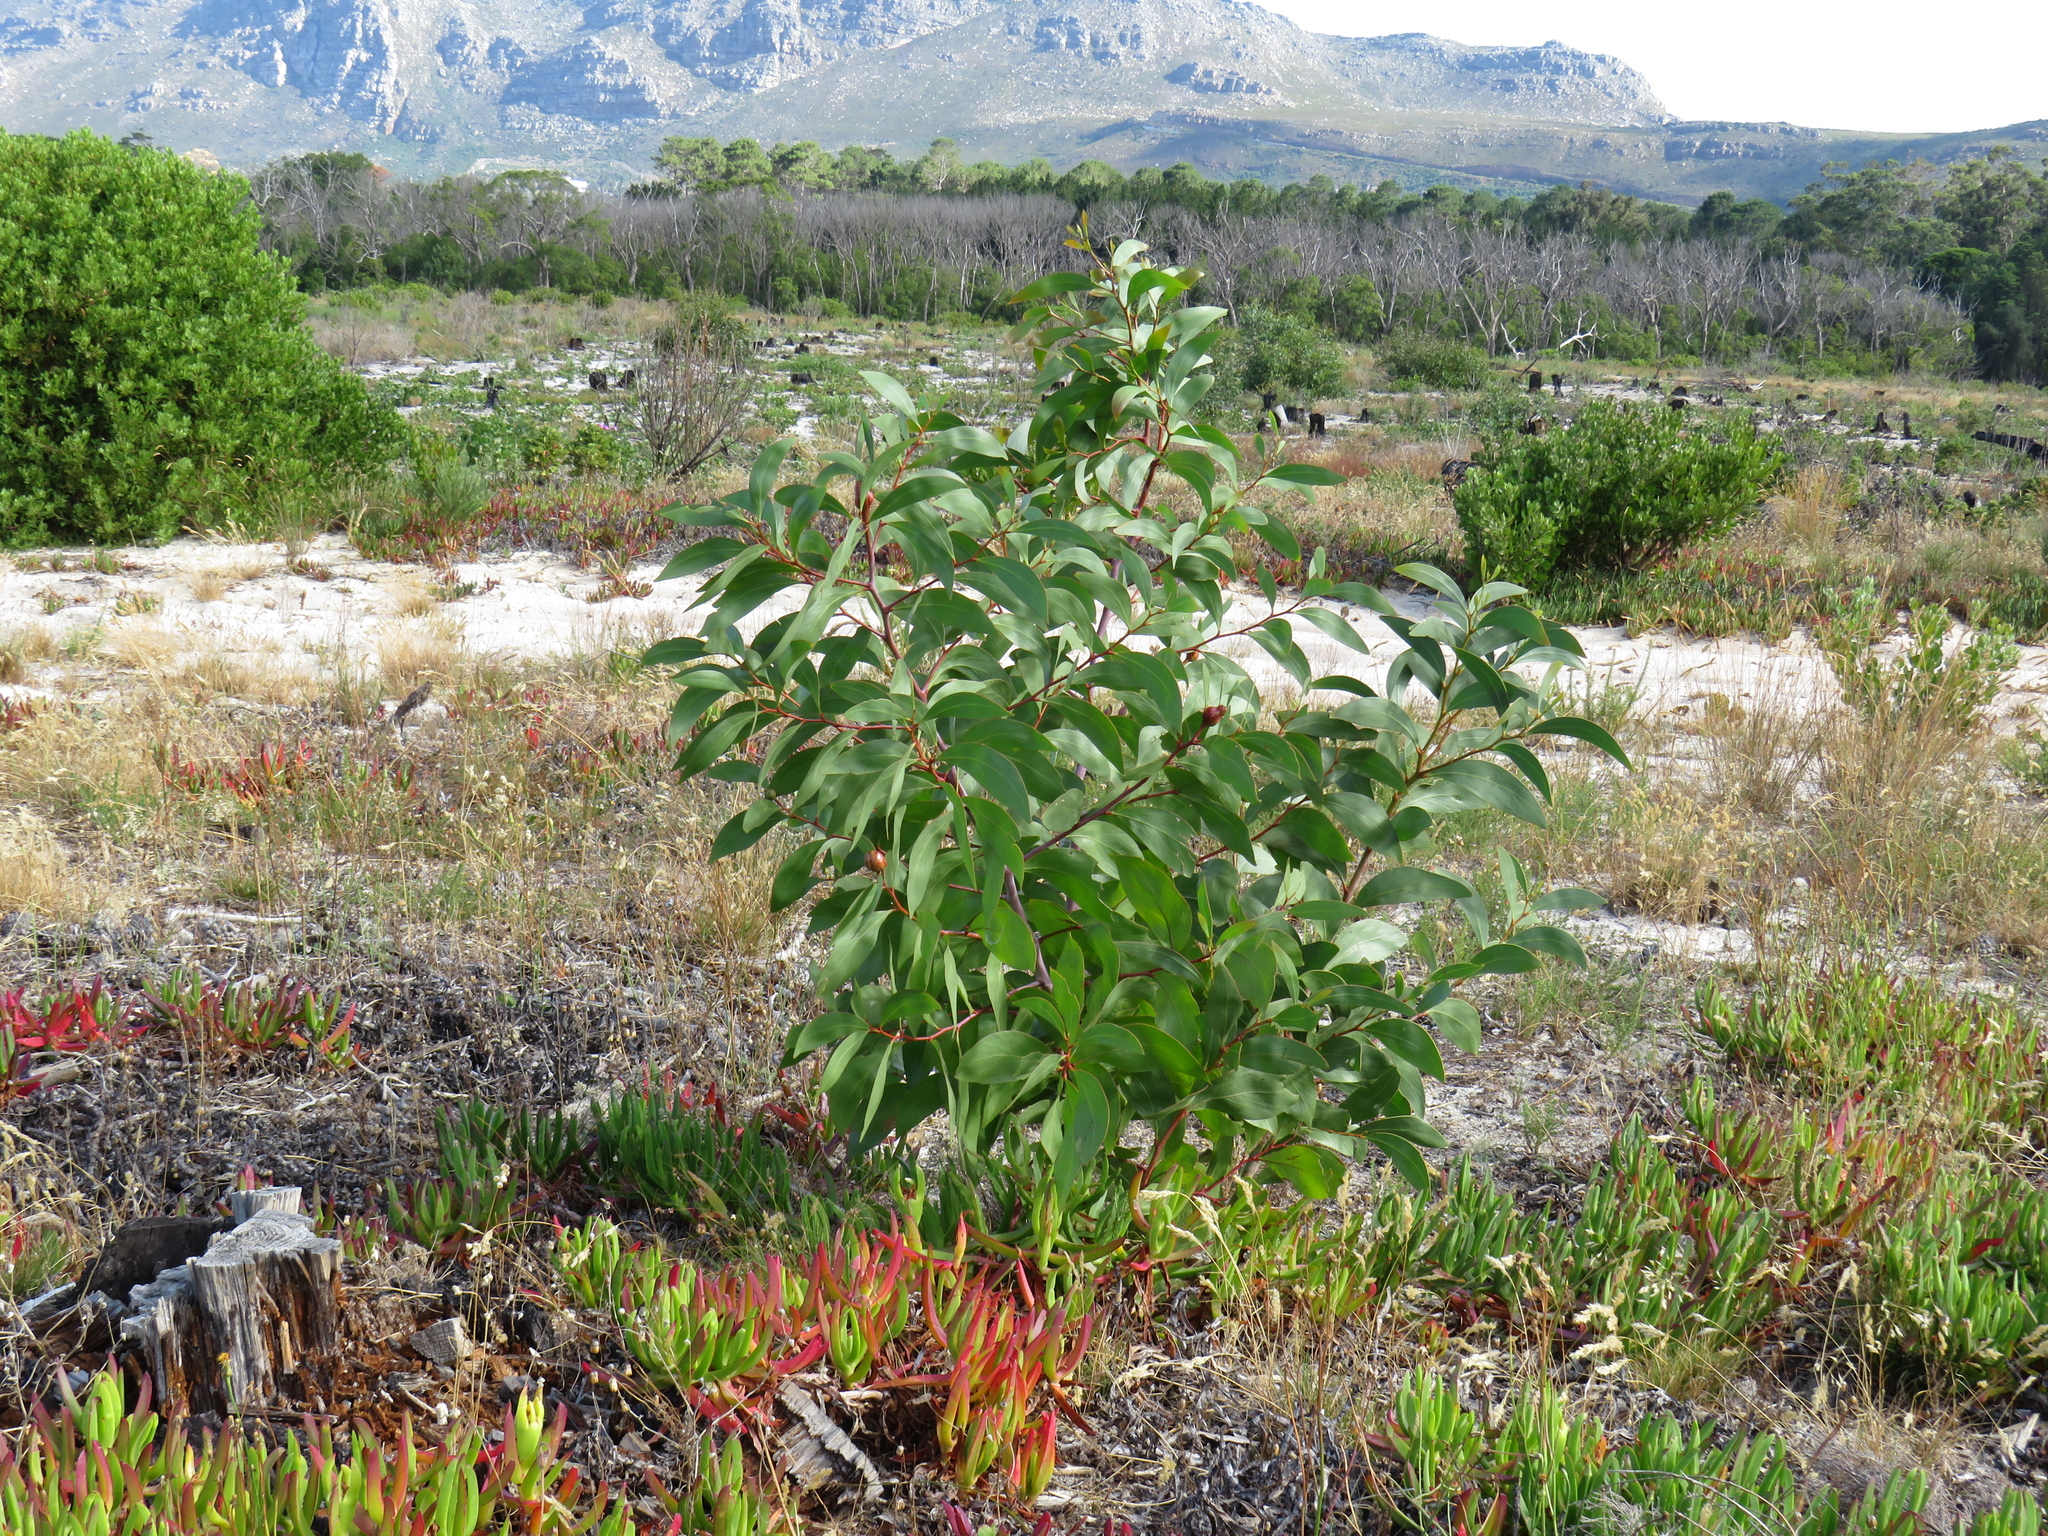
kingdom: Plantae
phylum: Tracheophyta
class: Magnoliopsida
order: Fabales
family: Fabaceae
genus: Acacia
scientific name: Acacia pycnantha
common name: Golden wattle
